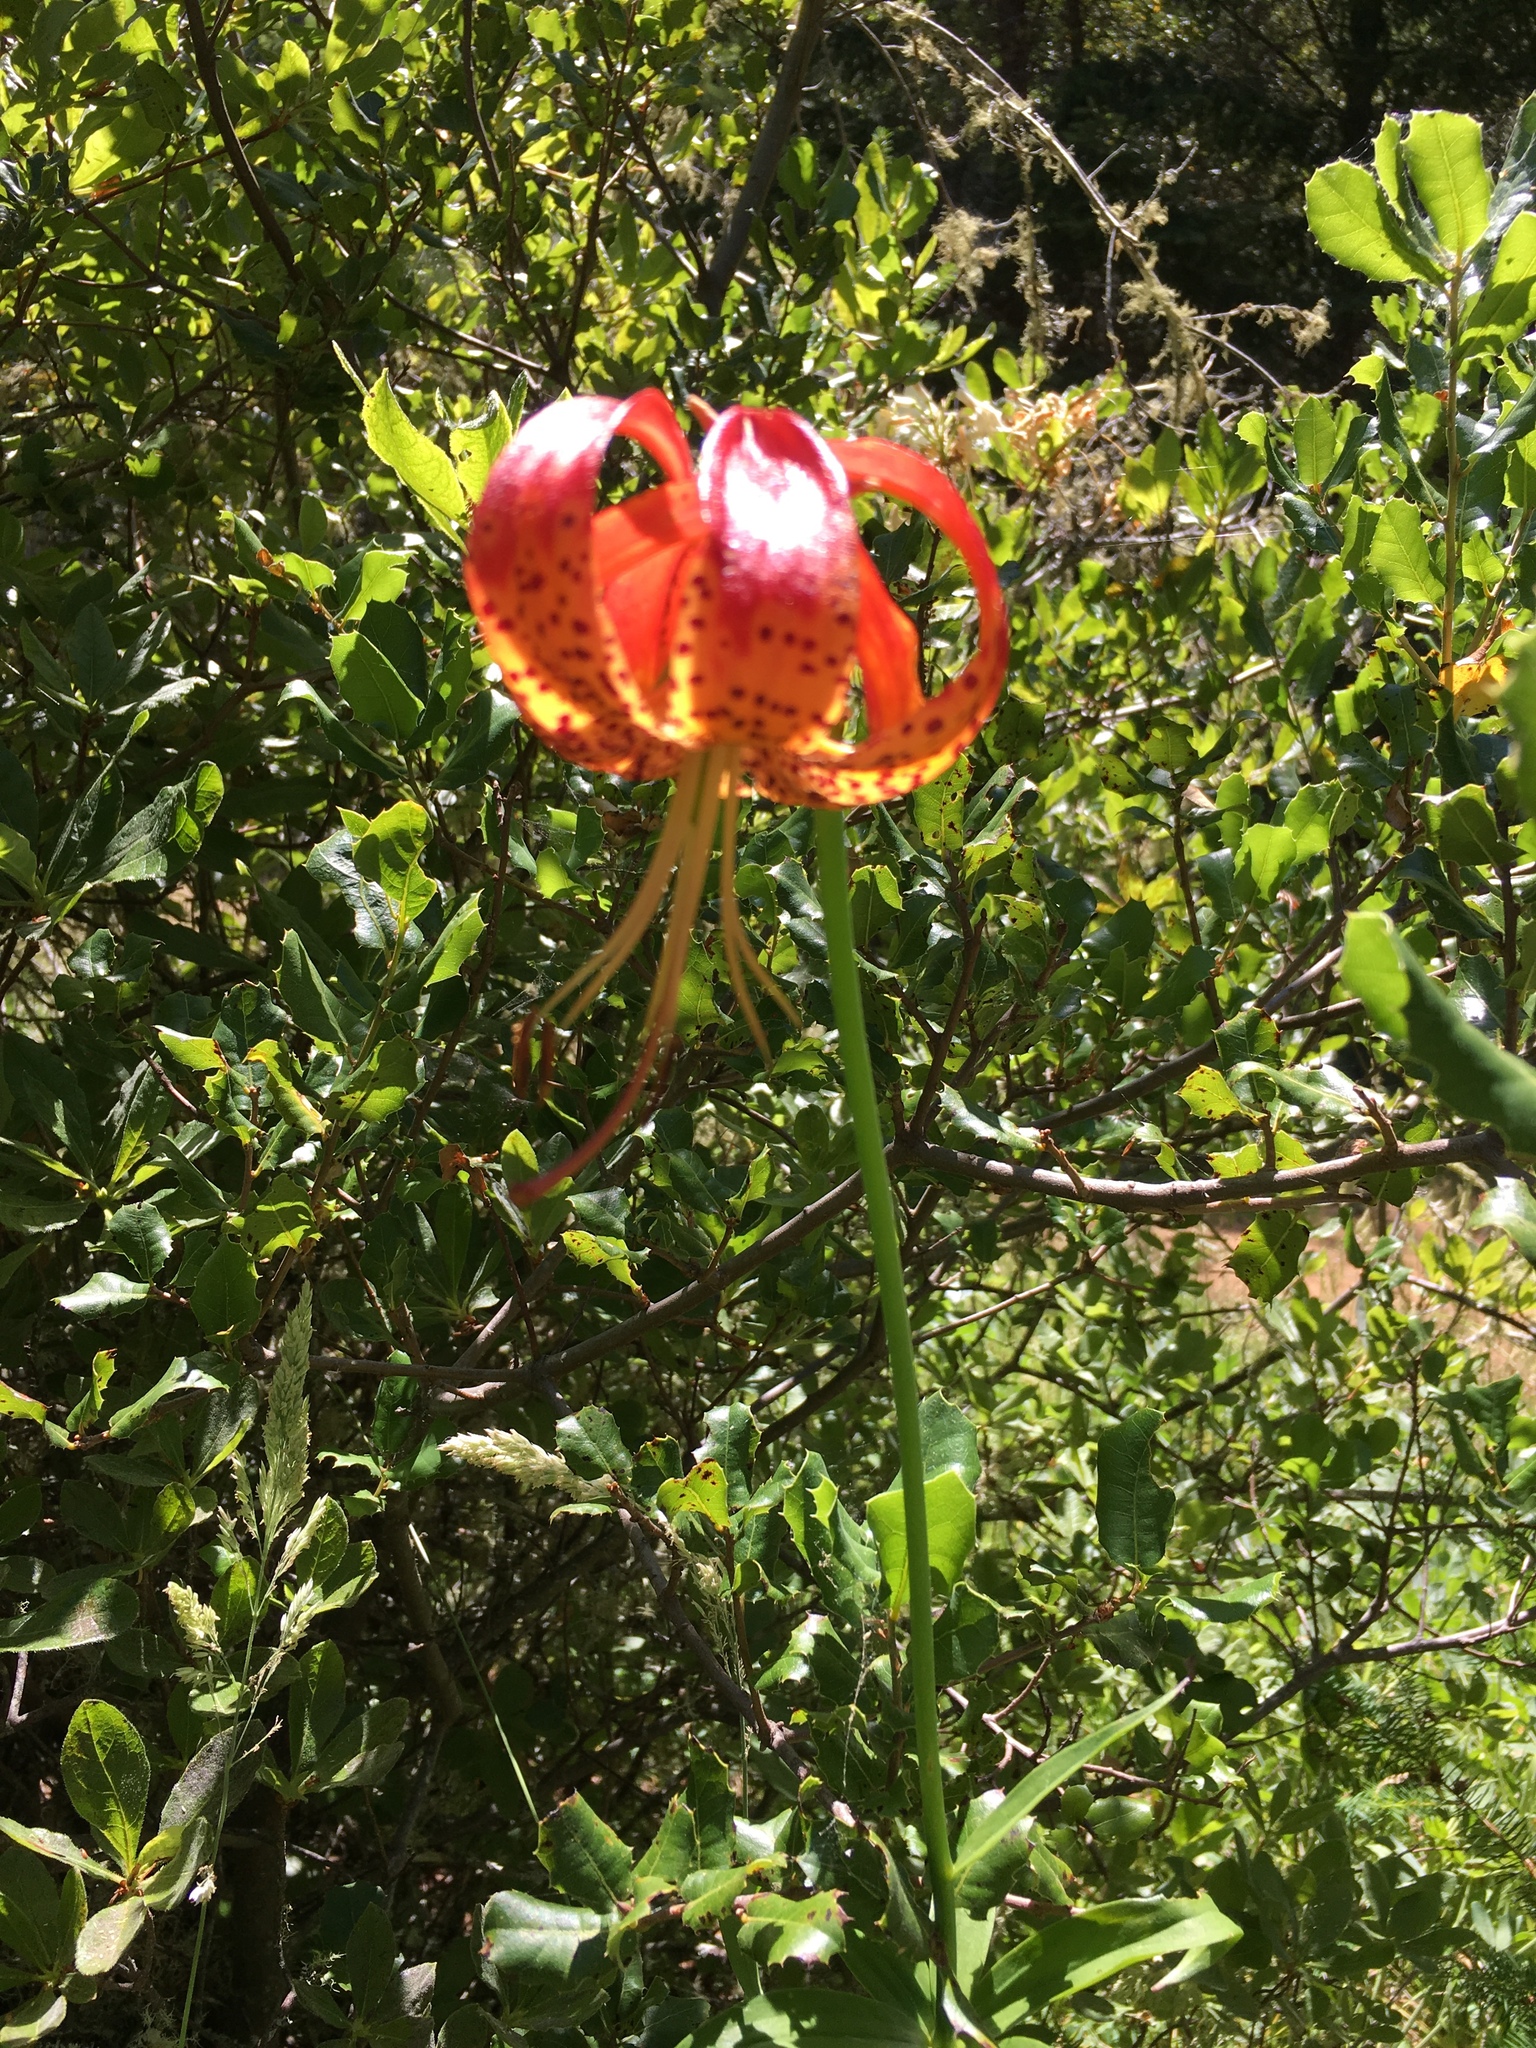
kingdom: Plantae
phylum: Tracheophyta
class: Liliopsida
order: Liliales
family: Liliaceae
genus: Lilium
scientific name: Lilium pardalinum
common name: Panther lily
